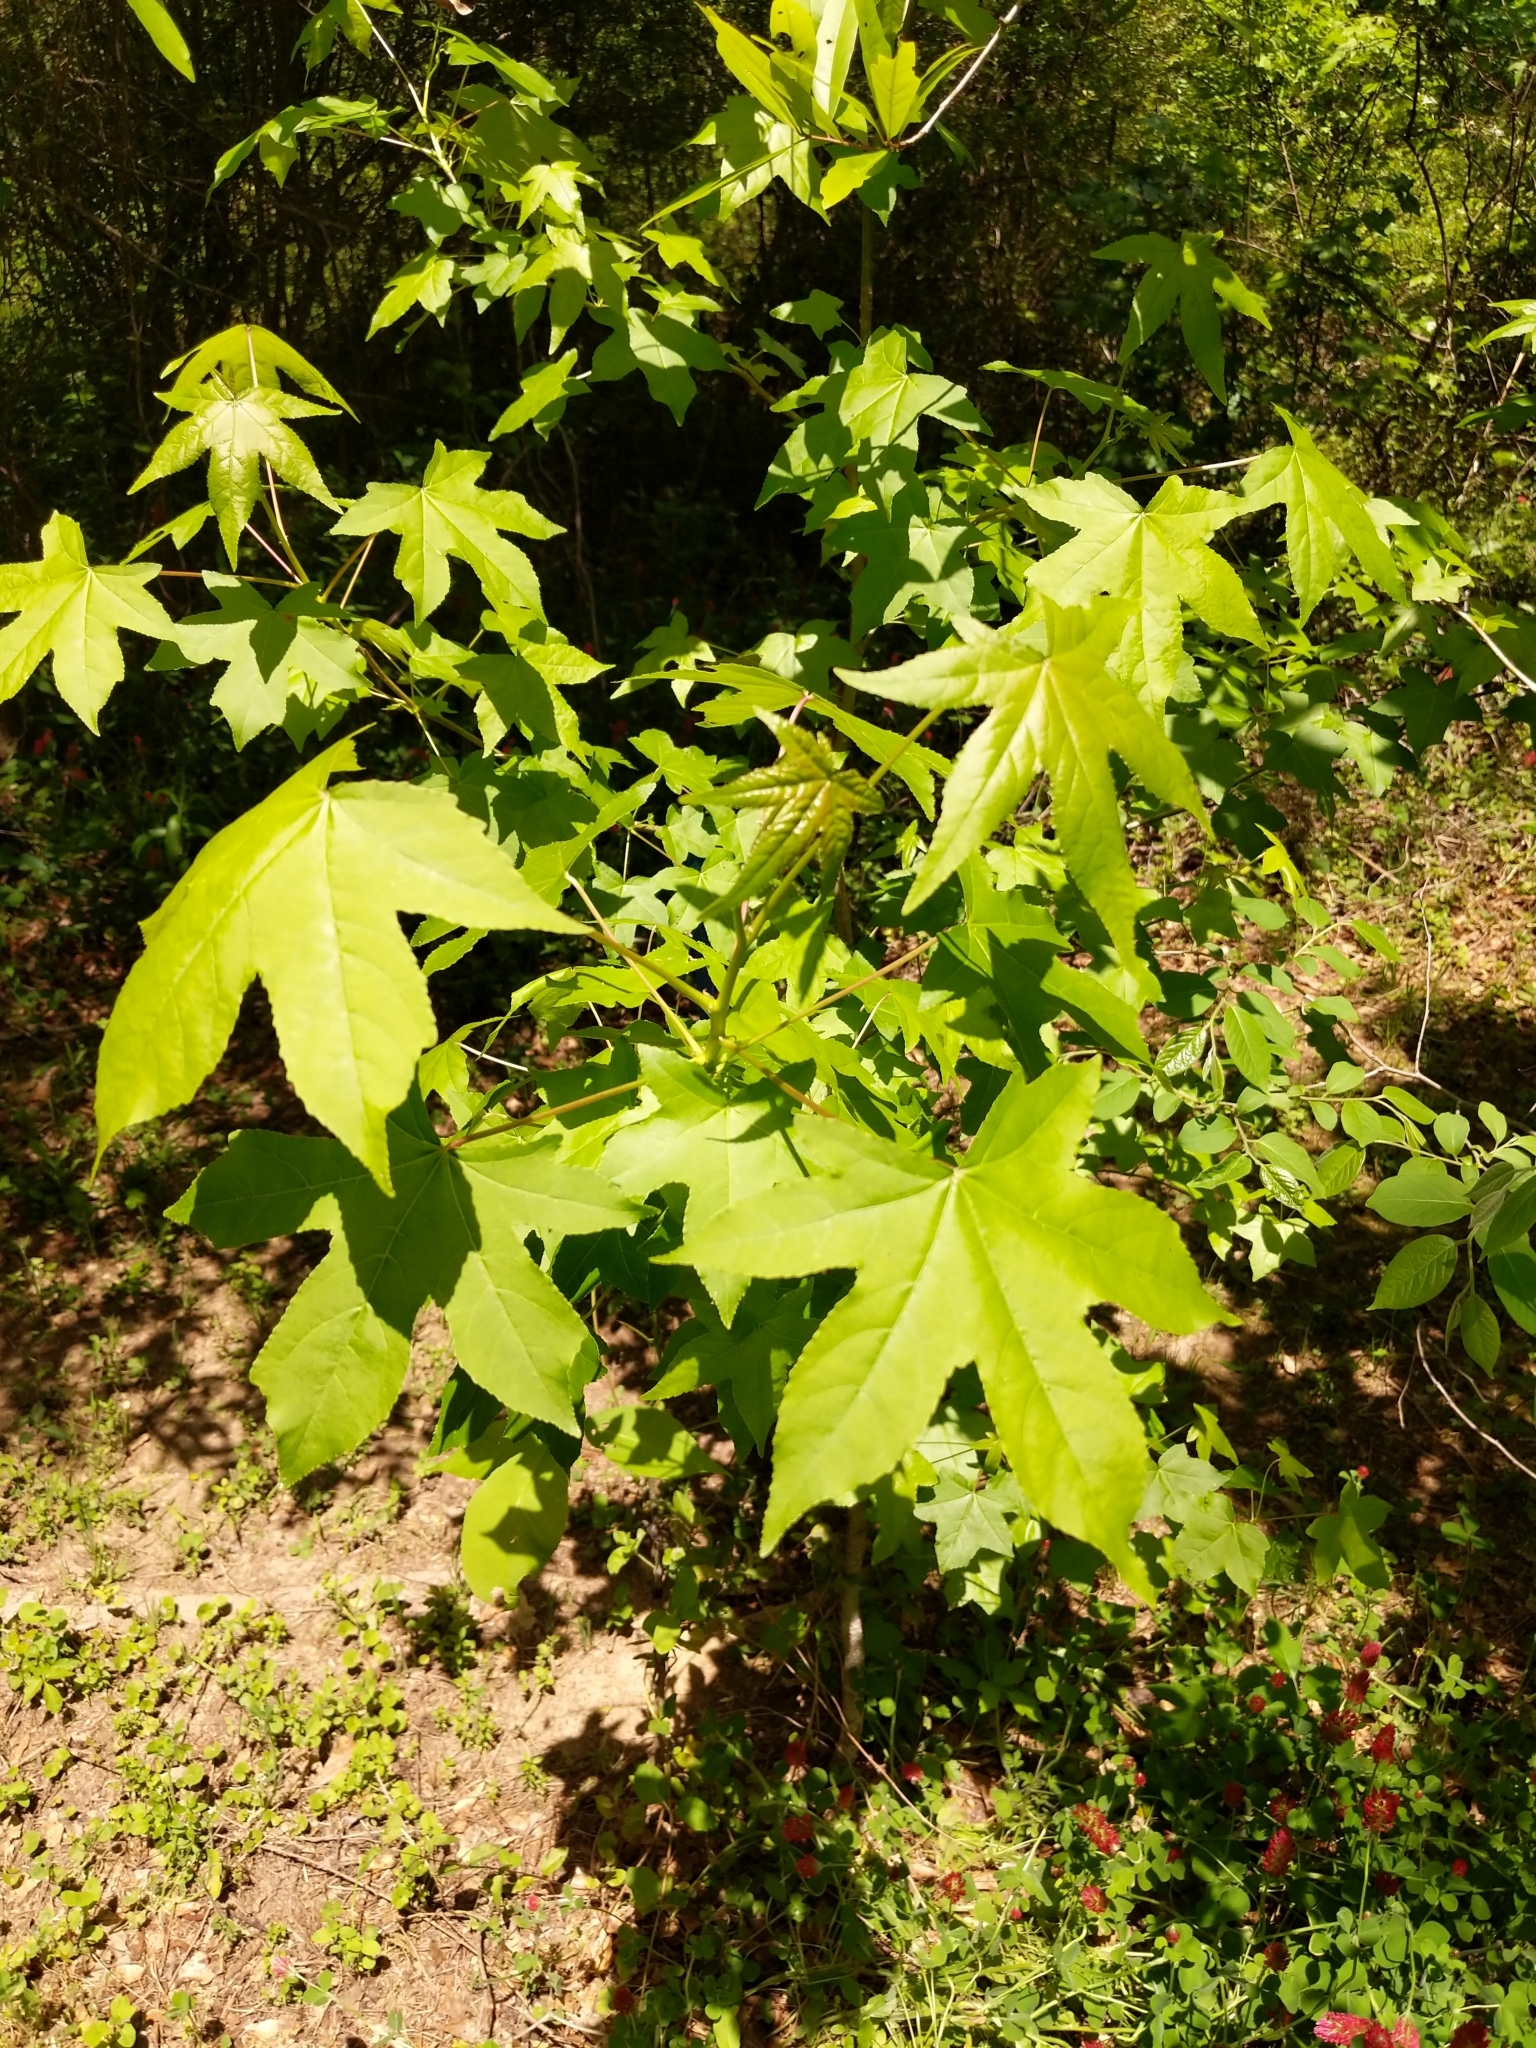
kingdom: Plantae
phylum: Tracheophyta
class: Magnoliopsida
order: Saxifragales
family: Altingiaceae
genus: Liquidambar
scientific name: Liquidambar styraciflua
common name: Sweet gum
